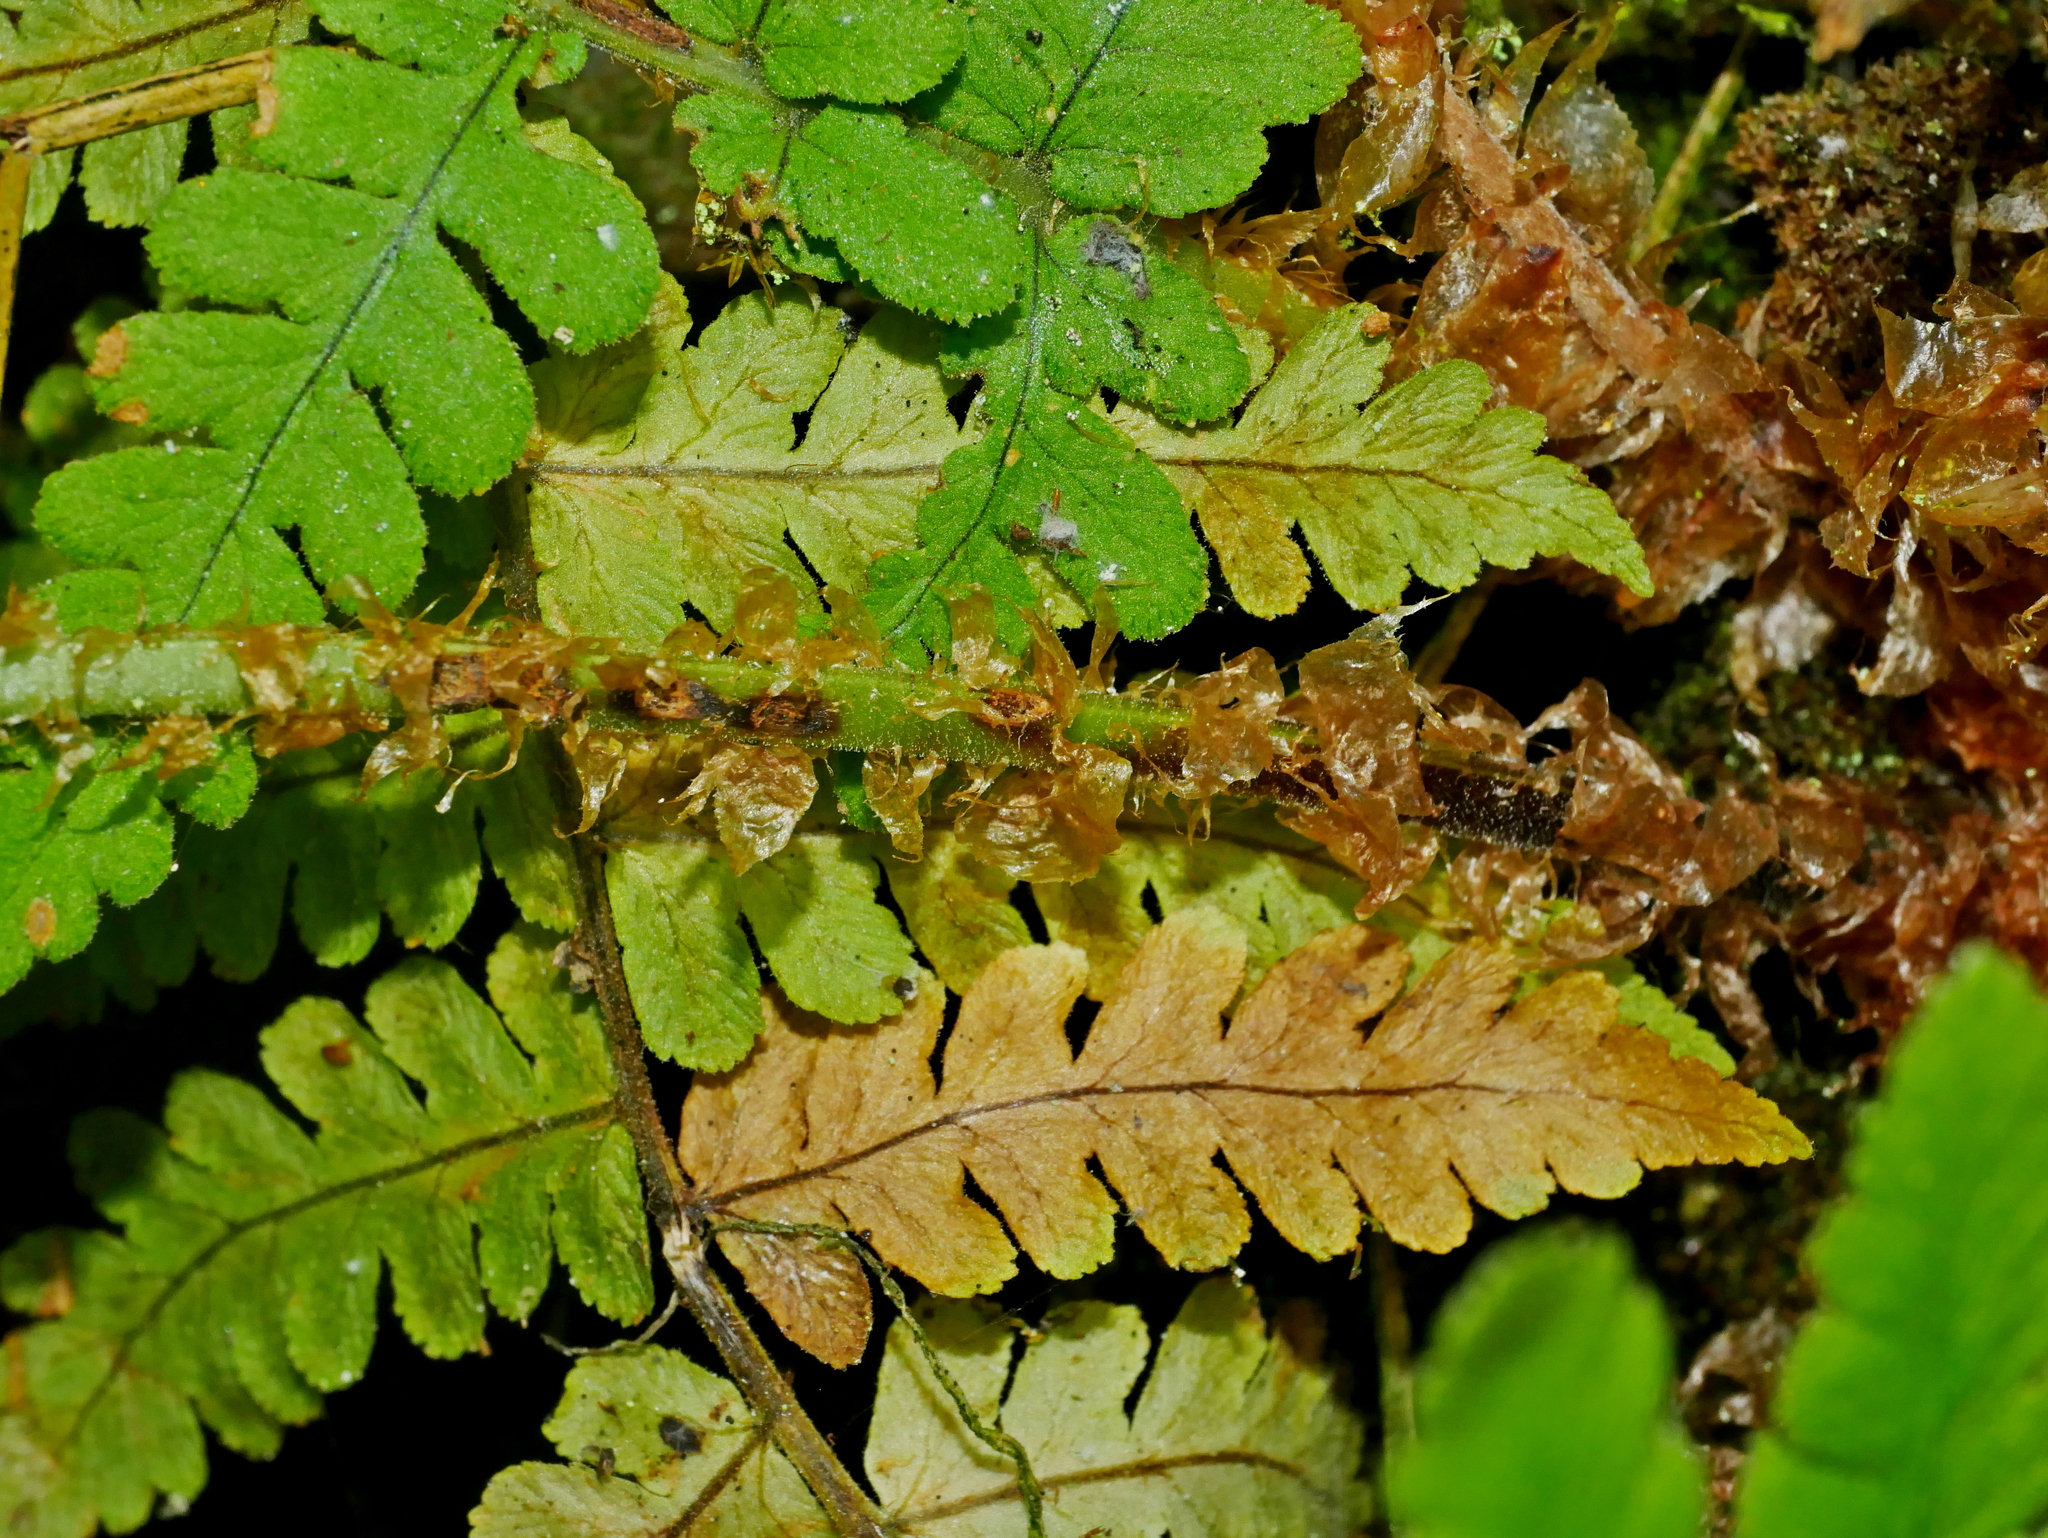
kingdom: Plantae
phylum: Tracheophyta
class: Polypodiopsida
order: Polypodiales
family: Dryopteridaceae
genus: Dryopteris
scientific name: Dryopteris woodsiisora
